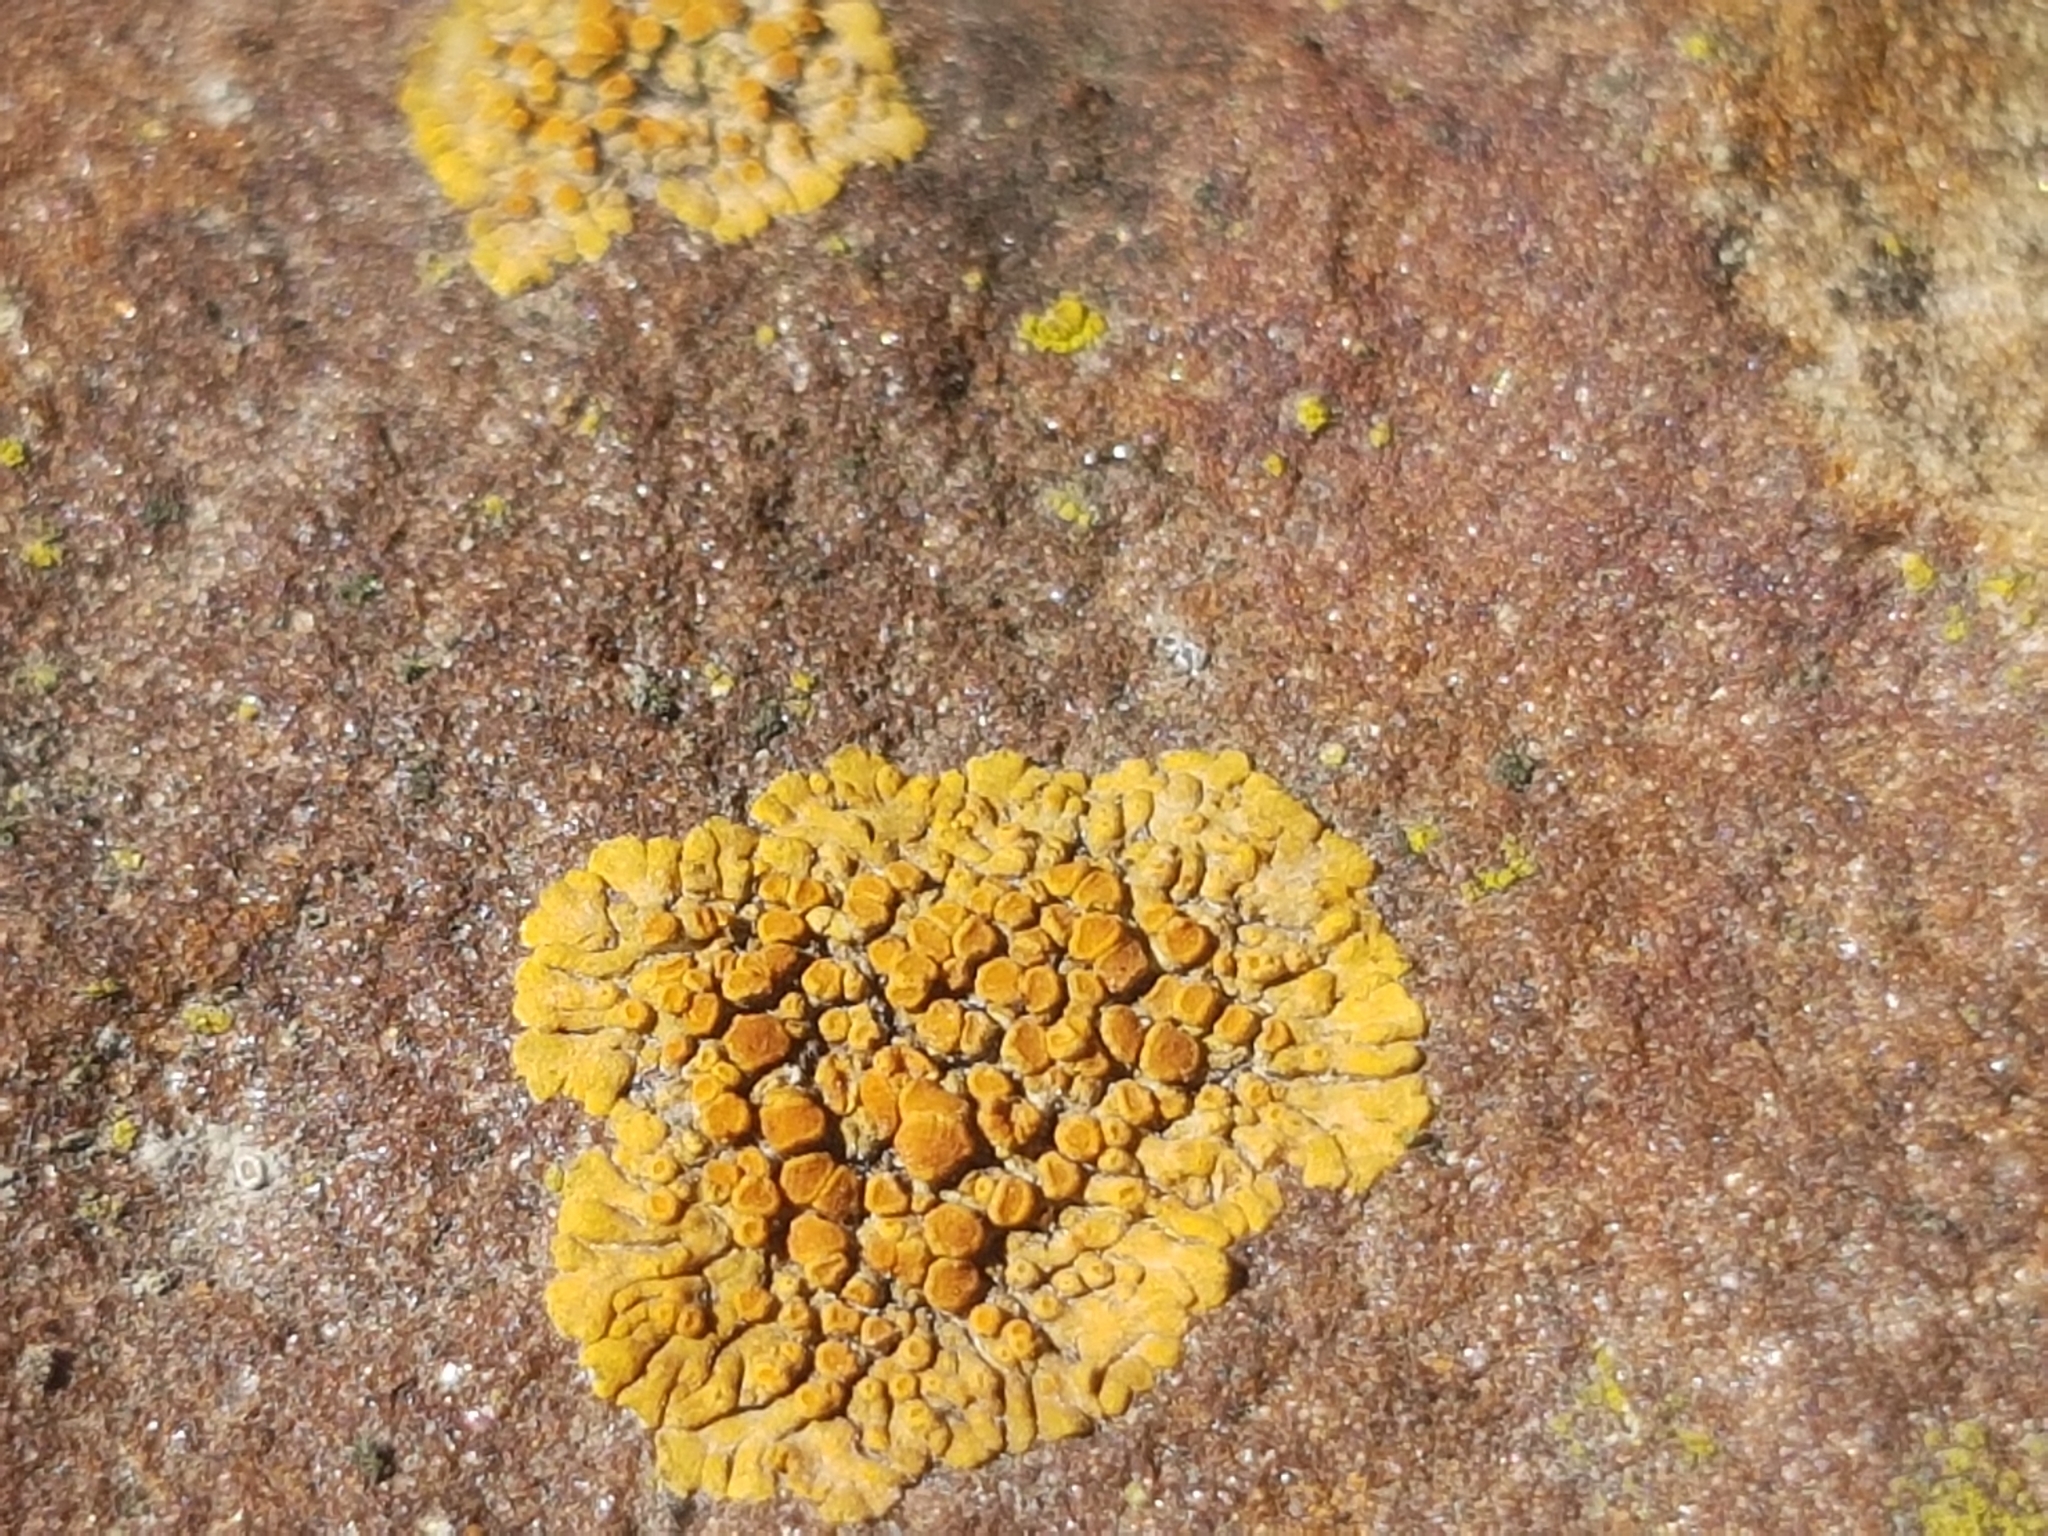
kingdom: Fungi
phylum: Ascomycota
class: Lecanoromycetes
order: Teloschistales
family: Teloschistaceae
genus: Calogaya
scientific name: Calogaya pusilla
